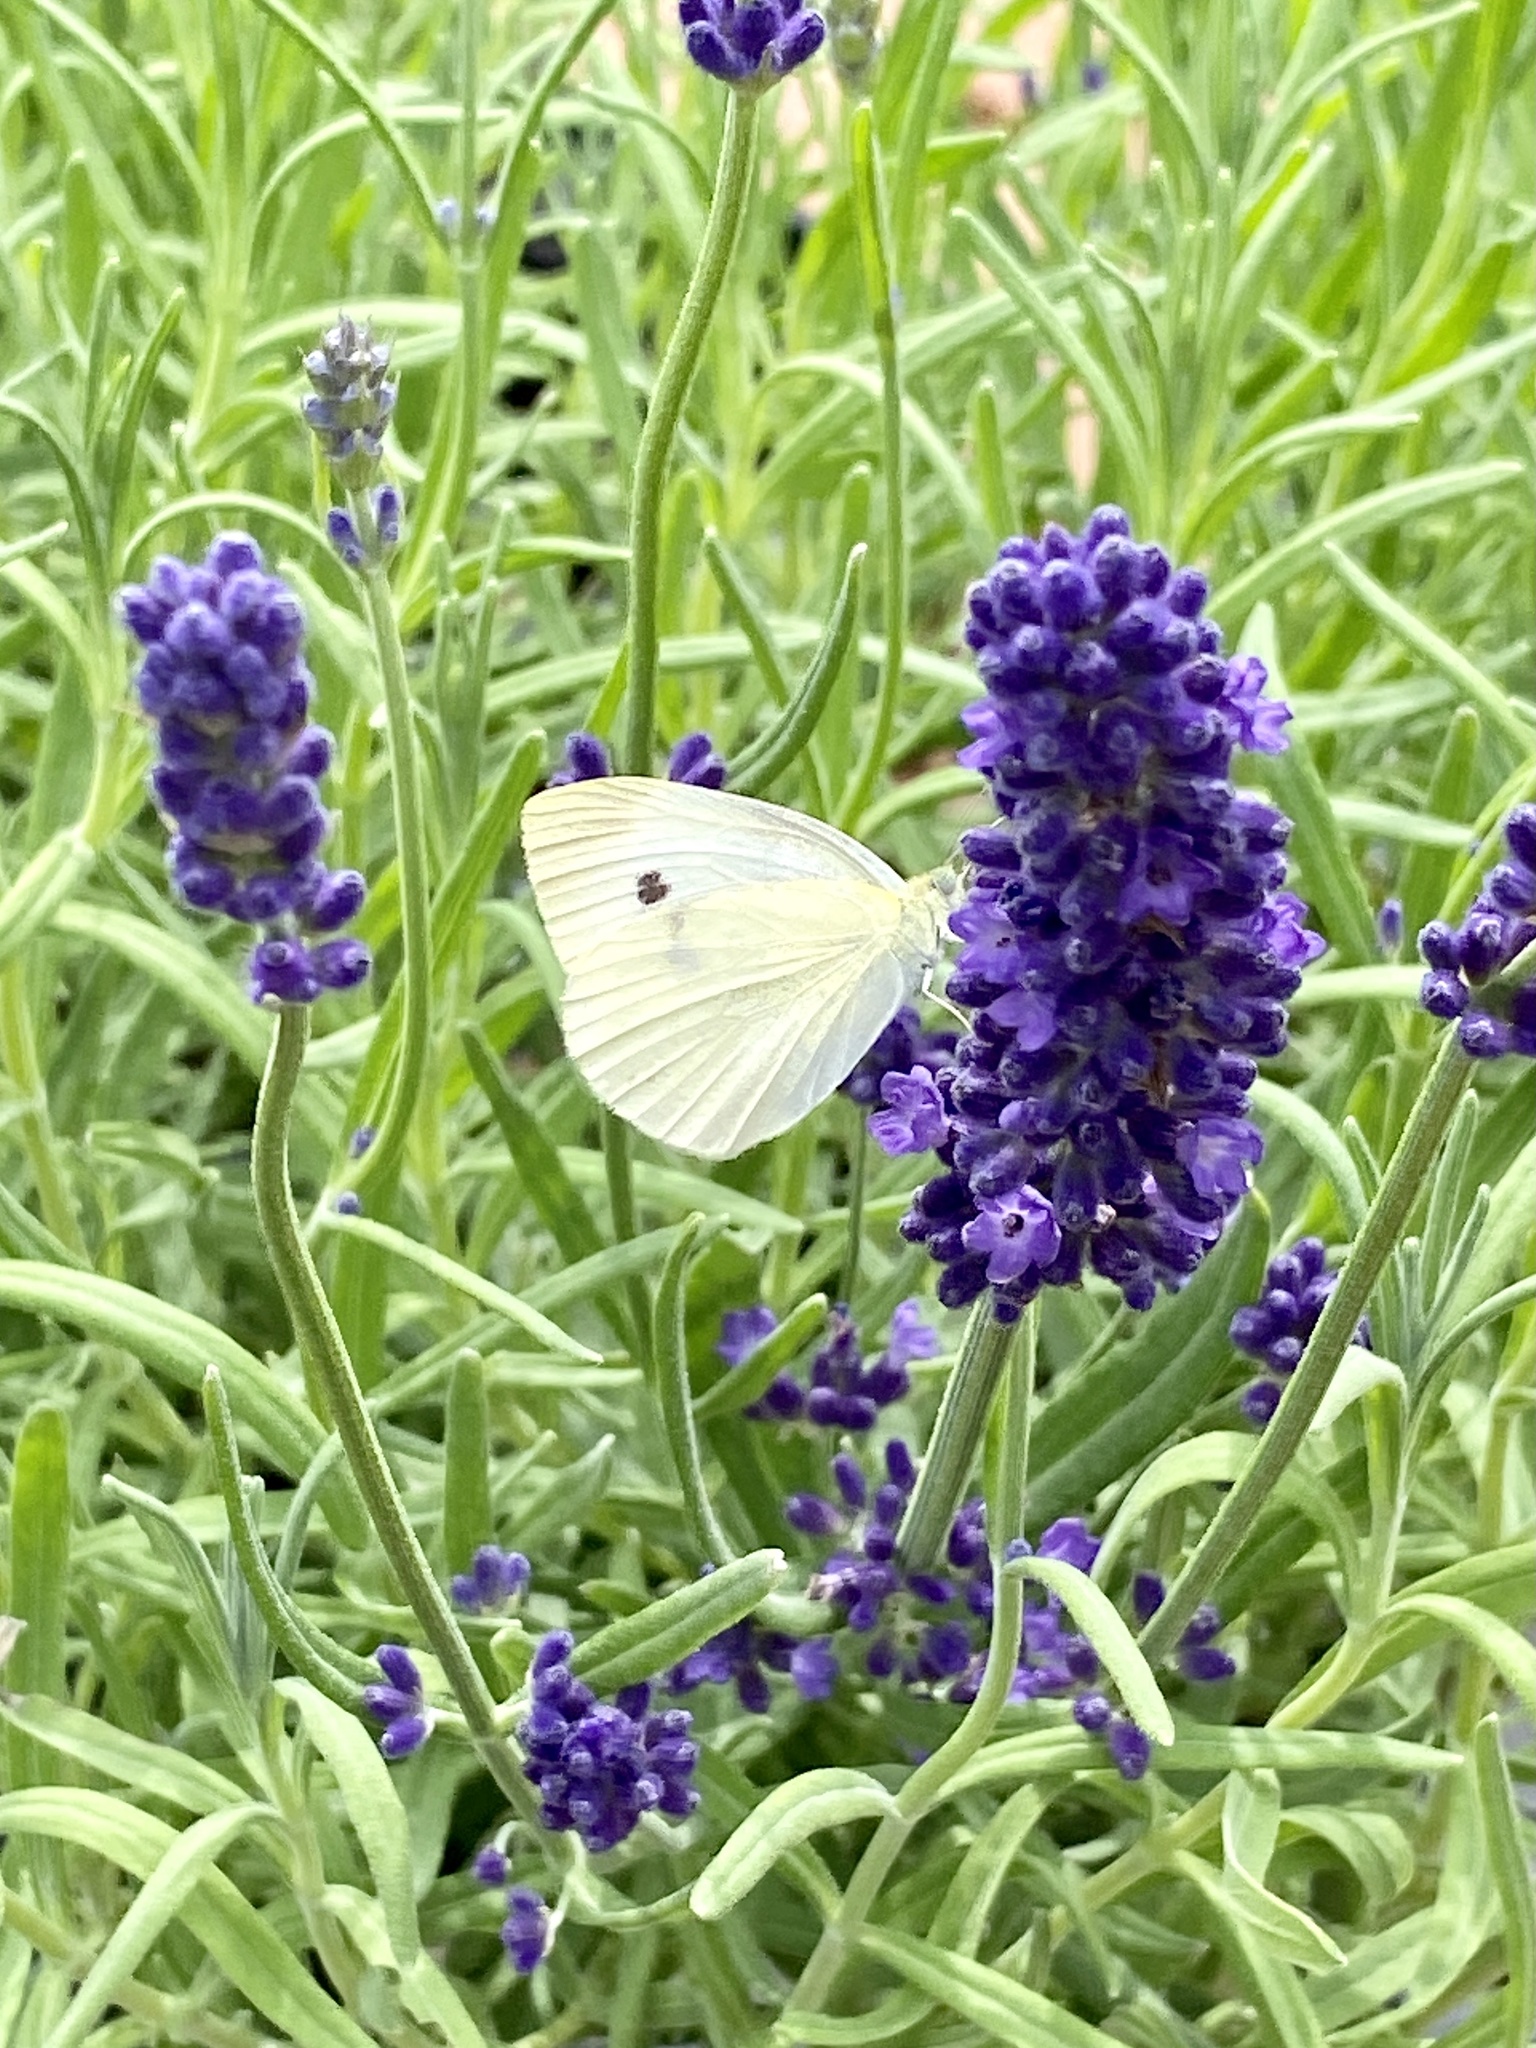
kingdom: Animalia
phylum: Arthropoda
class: Insecta
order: Lepidoptera
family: Pieridae
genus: Pieris
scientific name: Pieris rapae
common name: Small white
